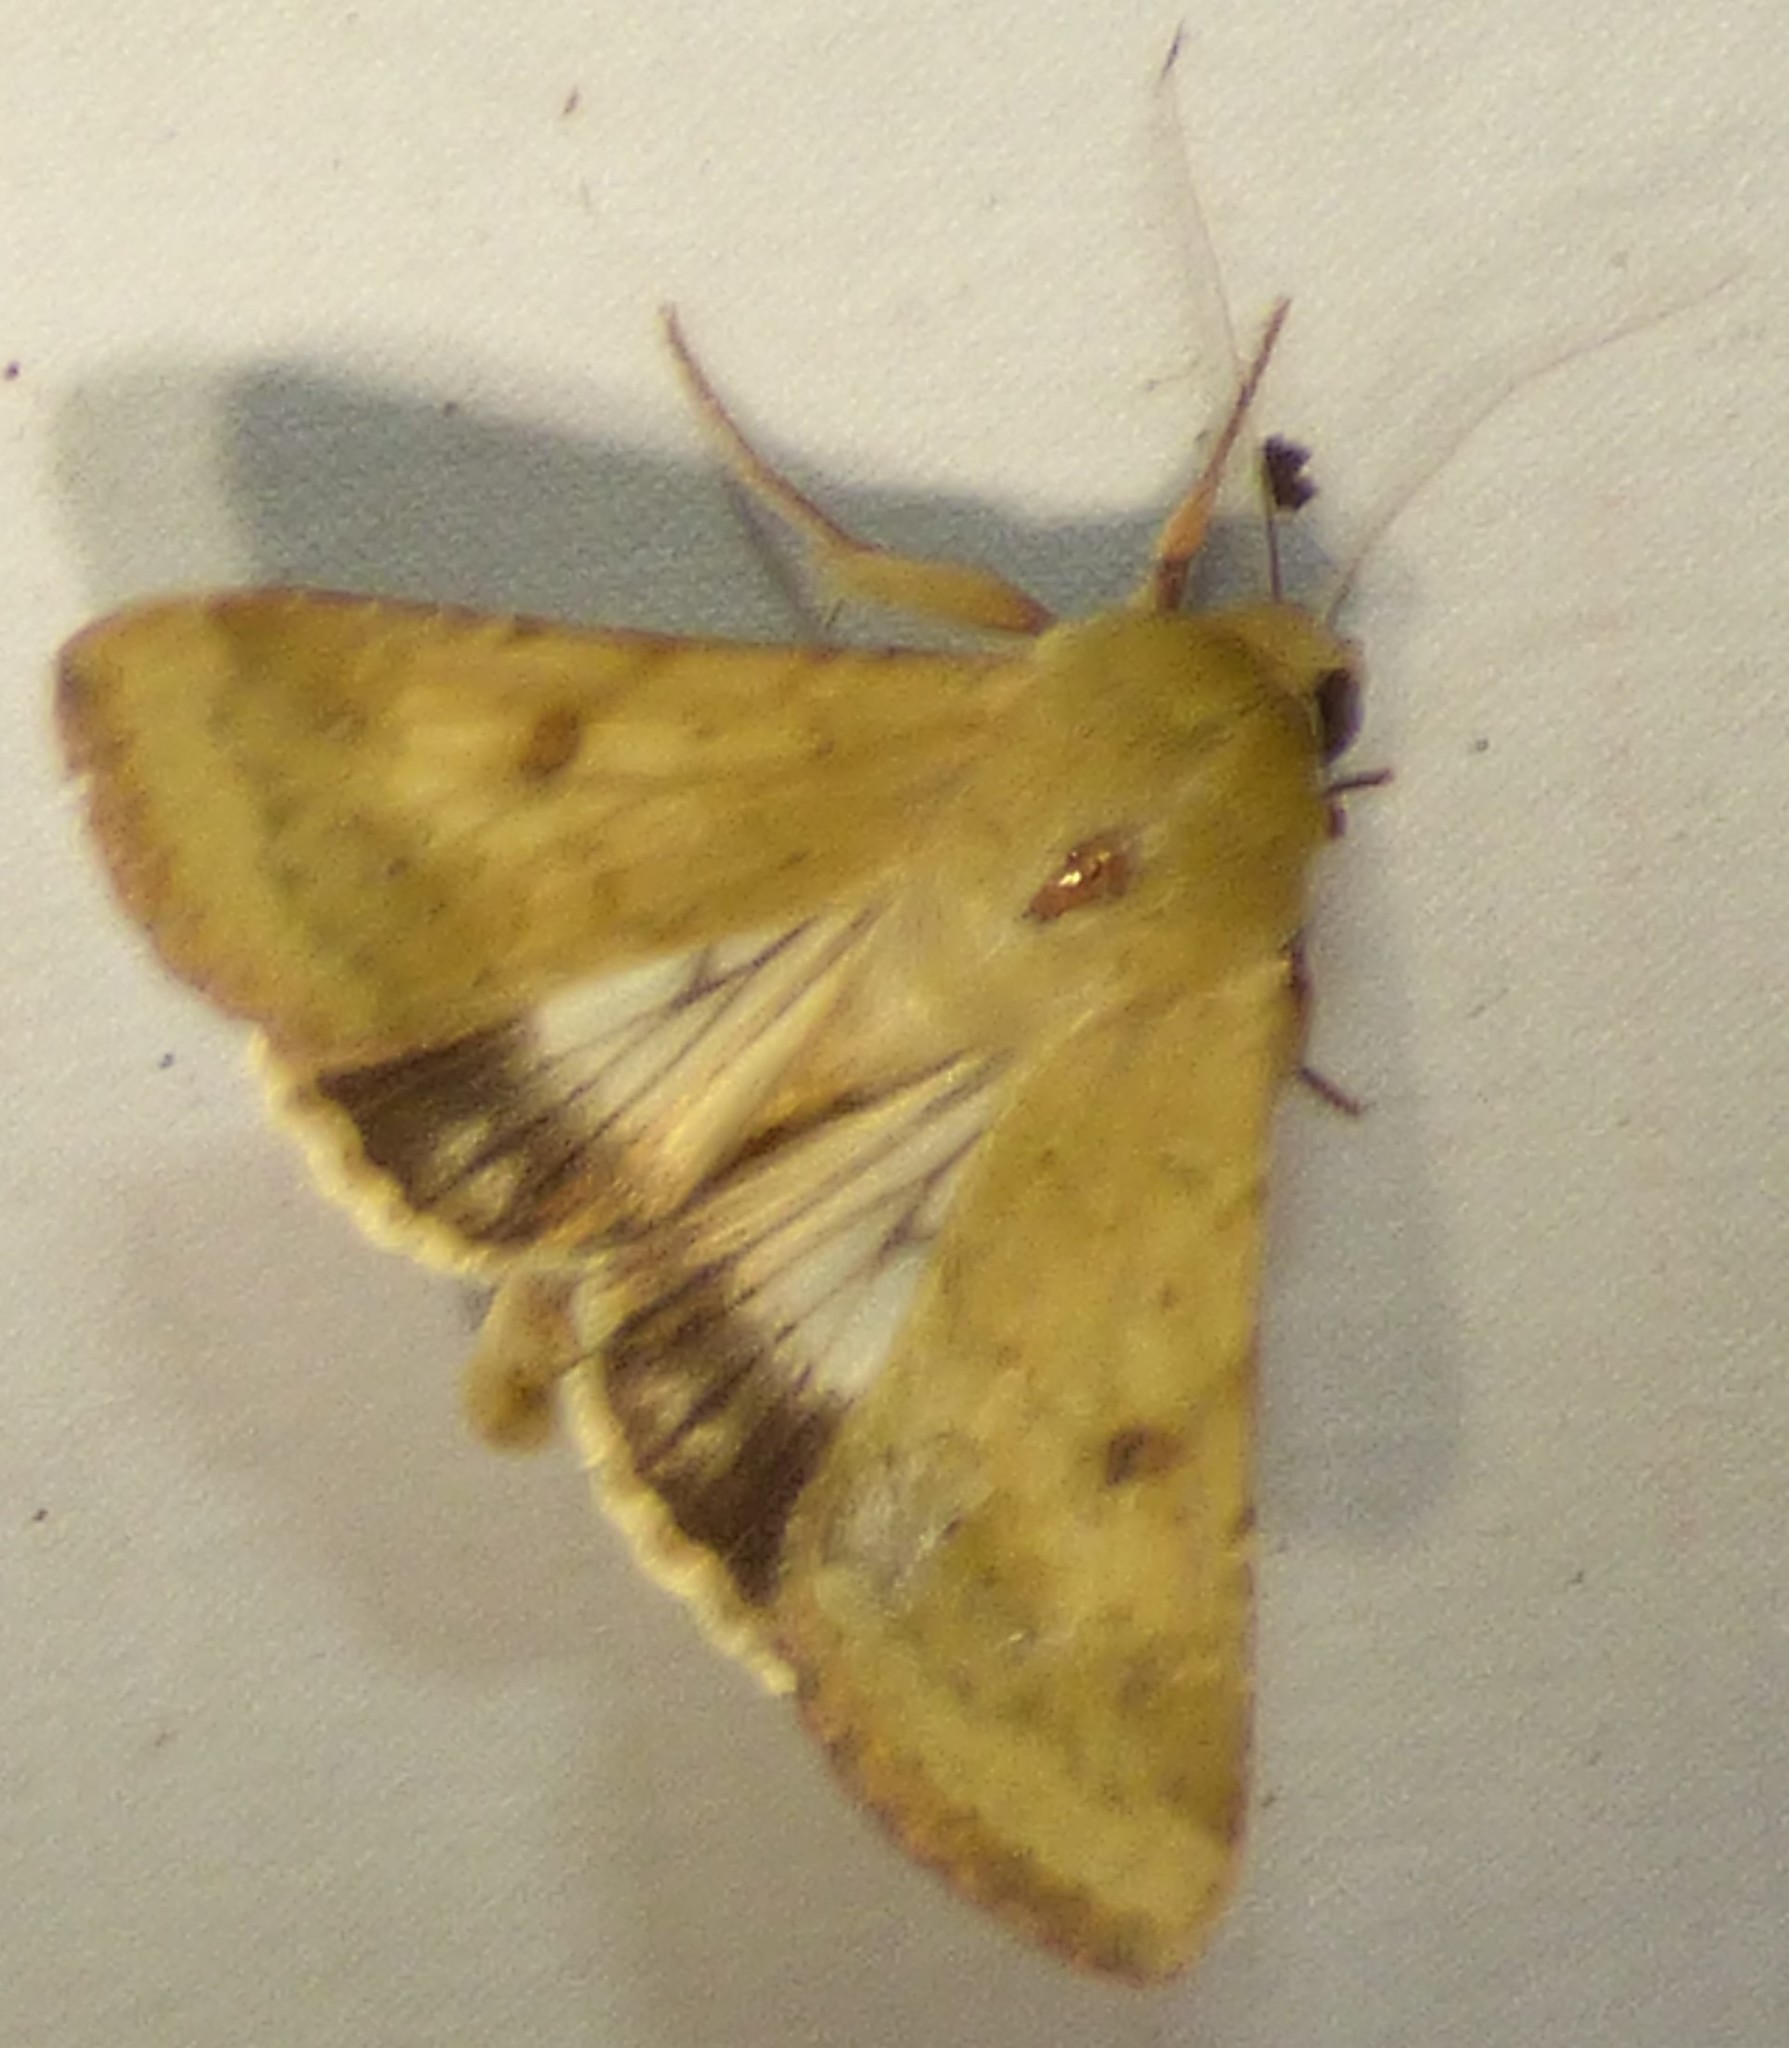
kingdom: Animalia
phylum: Arthropoda
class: Insecta
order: Lepidoptera
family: Noctuidae
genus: Helicoverpa
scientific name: Helicoverpa zea
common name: Bollworm
